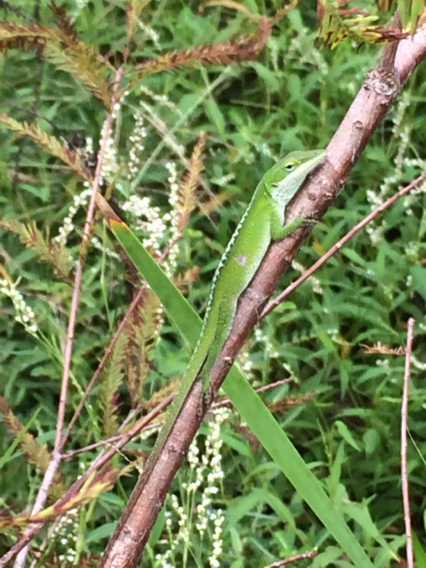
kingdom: Animalia
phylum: Chordata
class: Squamata
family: Dactyloidae
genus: Anolis
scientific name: Anolis carolinensis
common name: Green anole
